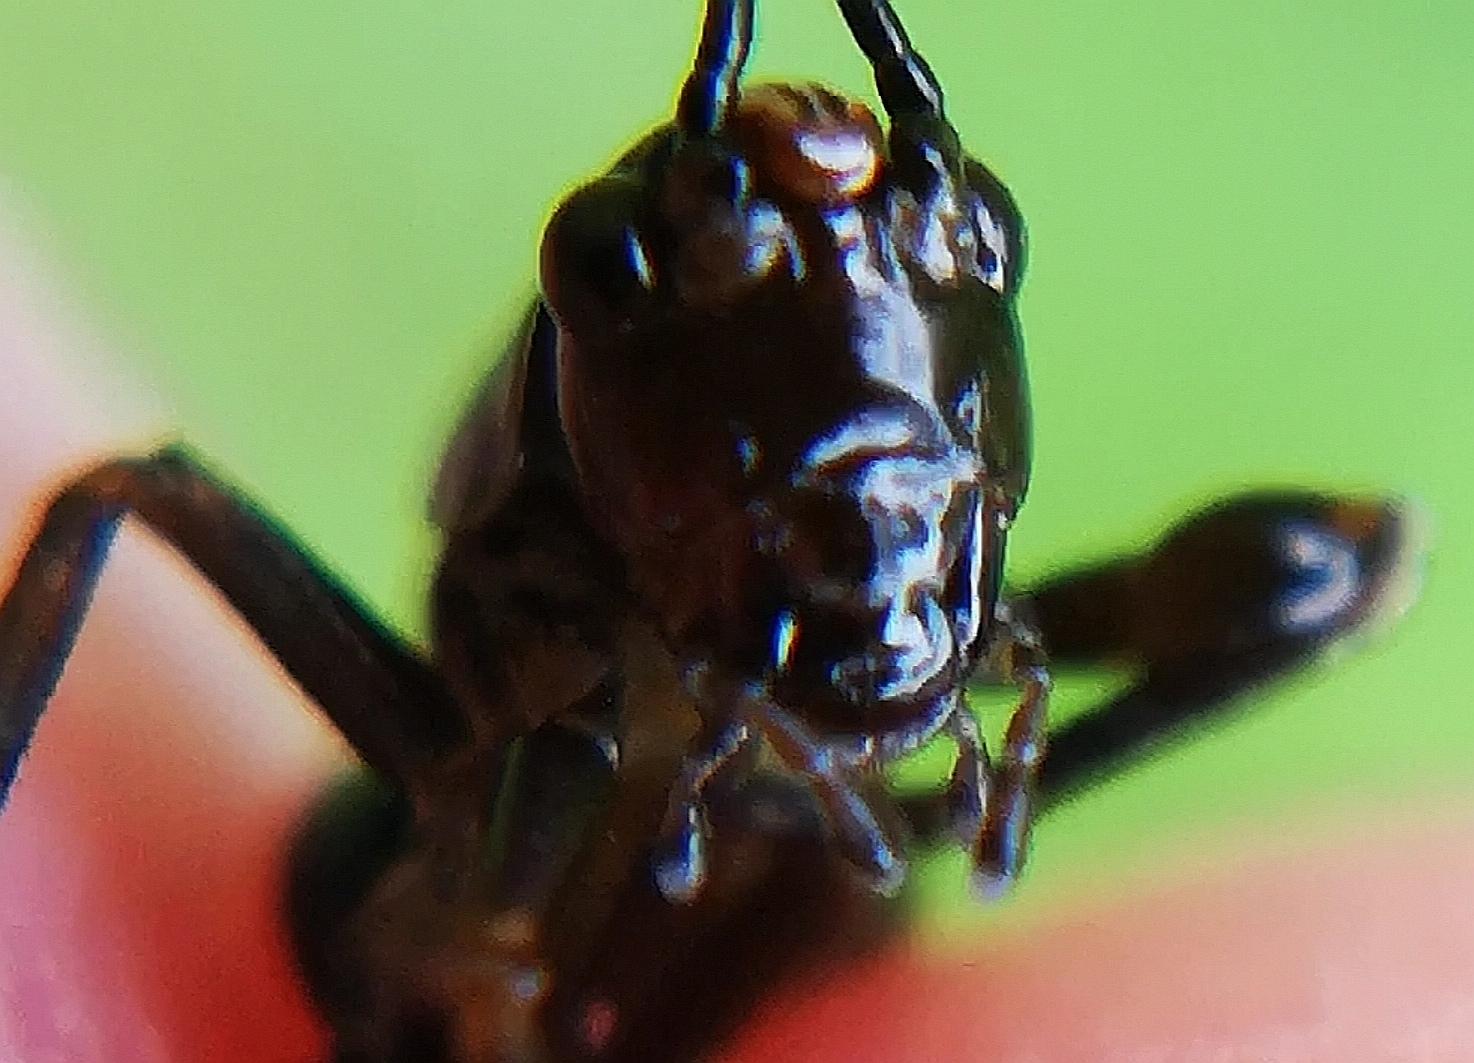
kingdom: Animalia
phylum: Arthropoda
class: Insecta
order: Orthoptera
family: Tettigoniidae
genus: Pholidoptera
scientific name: Pholidoptera griseoaptera
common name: Dark bush-cricket
